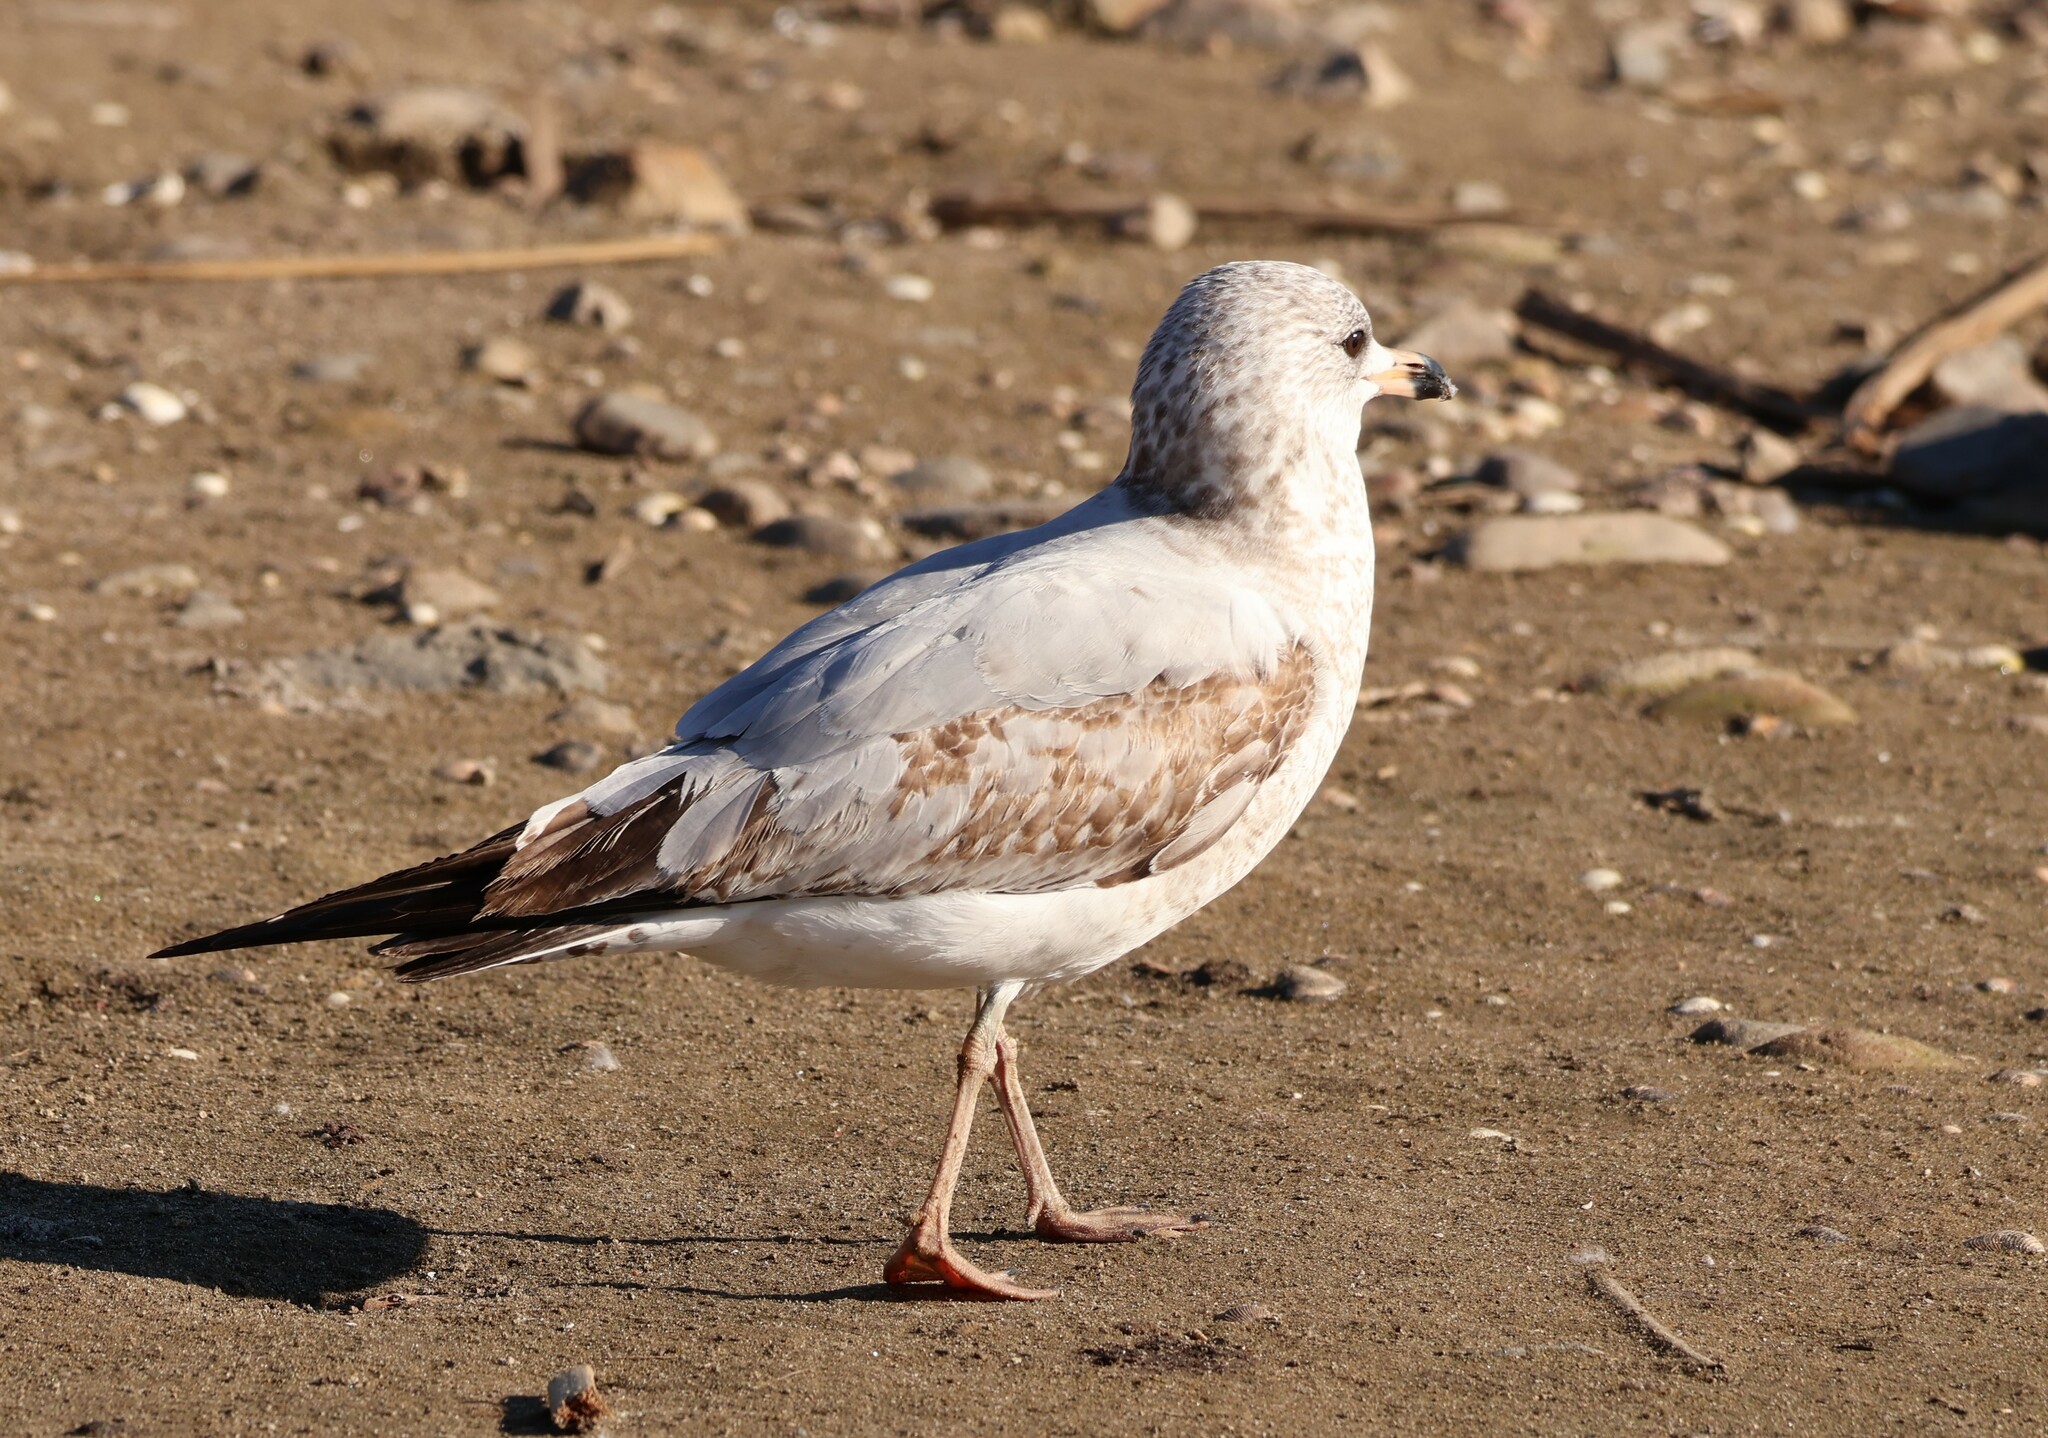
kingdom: Animalia
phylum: Chordata
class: Aves
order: Charadriiformes
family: Laridae
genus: Larus
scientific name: Larus delawarensis
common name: Ring-billed gull
